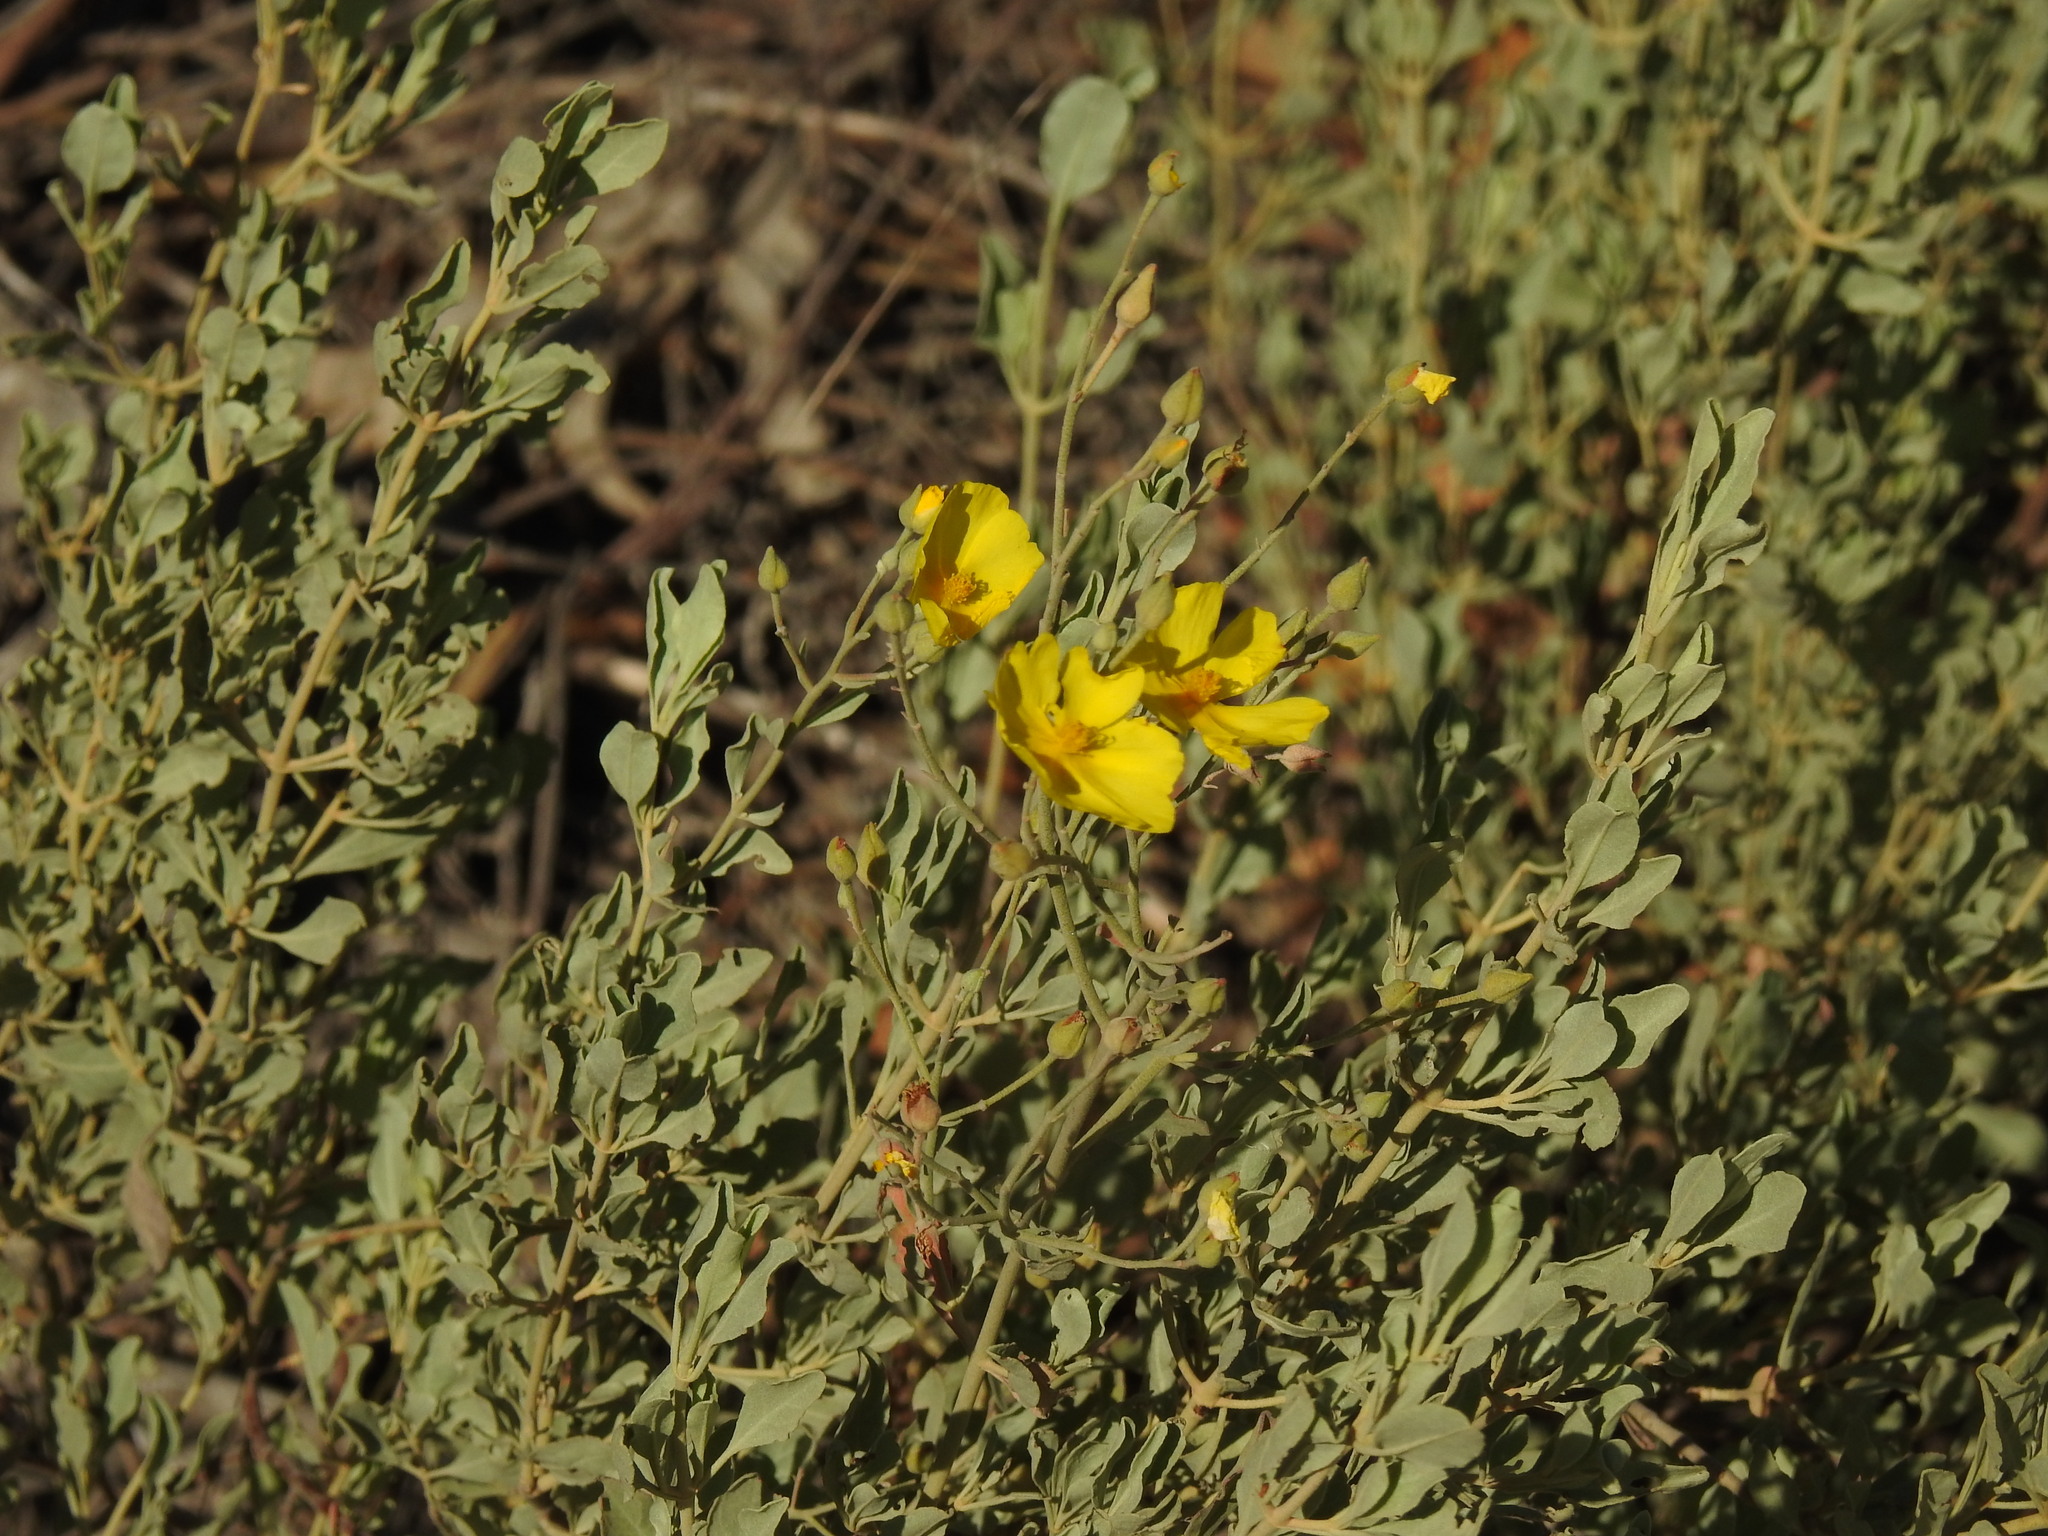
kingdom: Plantae
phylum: Tracheophyta
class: Magnoliopsida
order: Malvales
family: Cistaceae
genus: Halimium
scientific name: Halimium halimifolium
